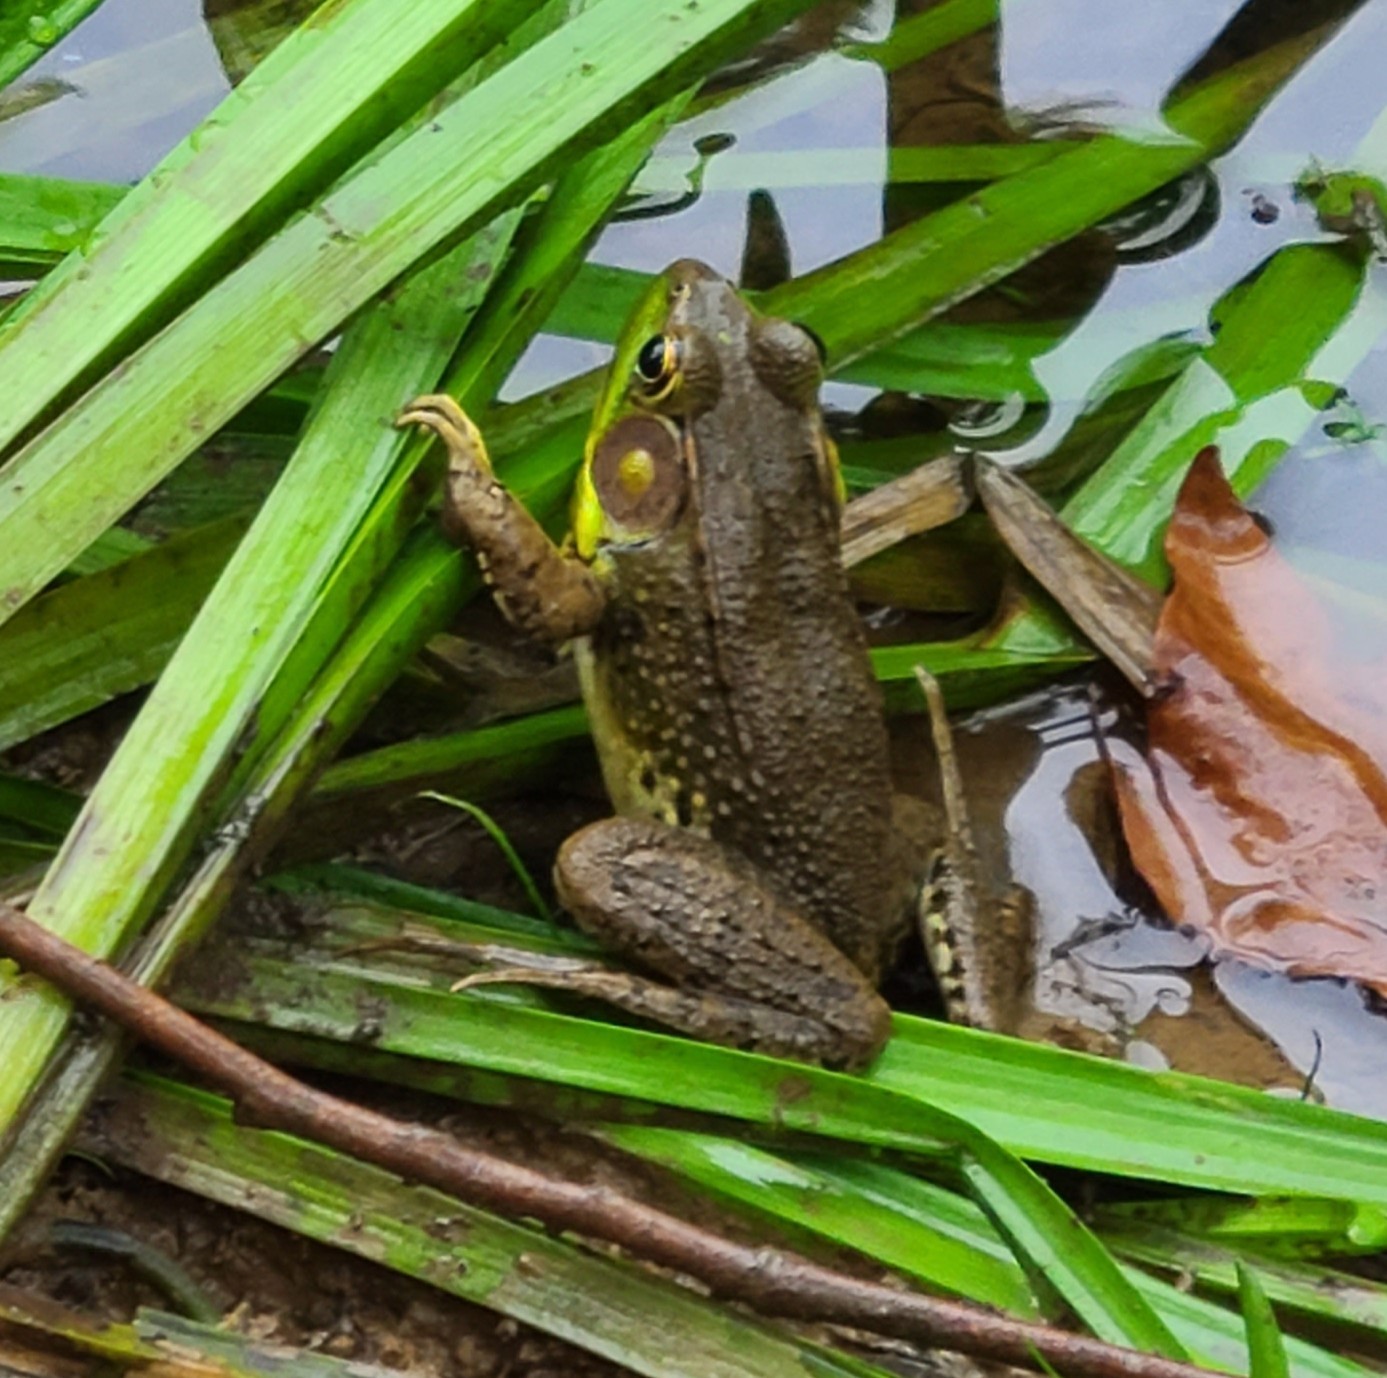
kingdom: Animalia
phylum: Chordata
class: Amphibia
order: Anura
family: Ranidae
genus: Lithobates
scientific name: Lithobates clamitans
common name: Green frog
